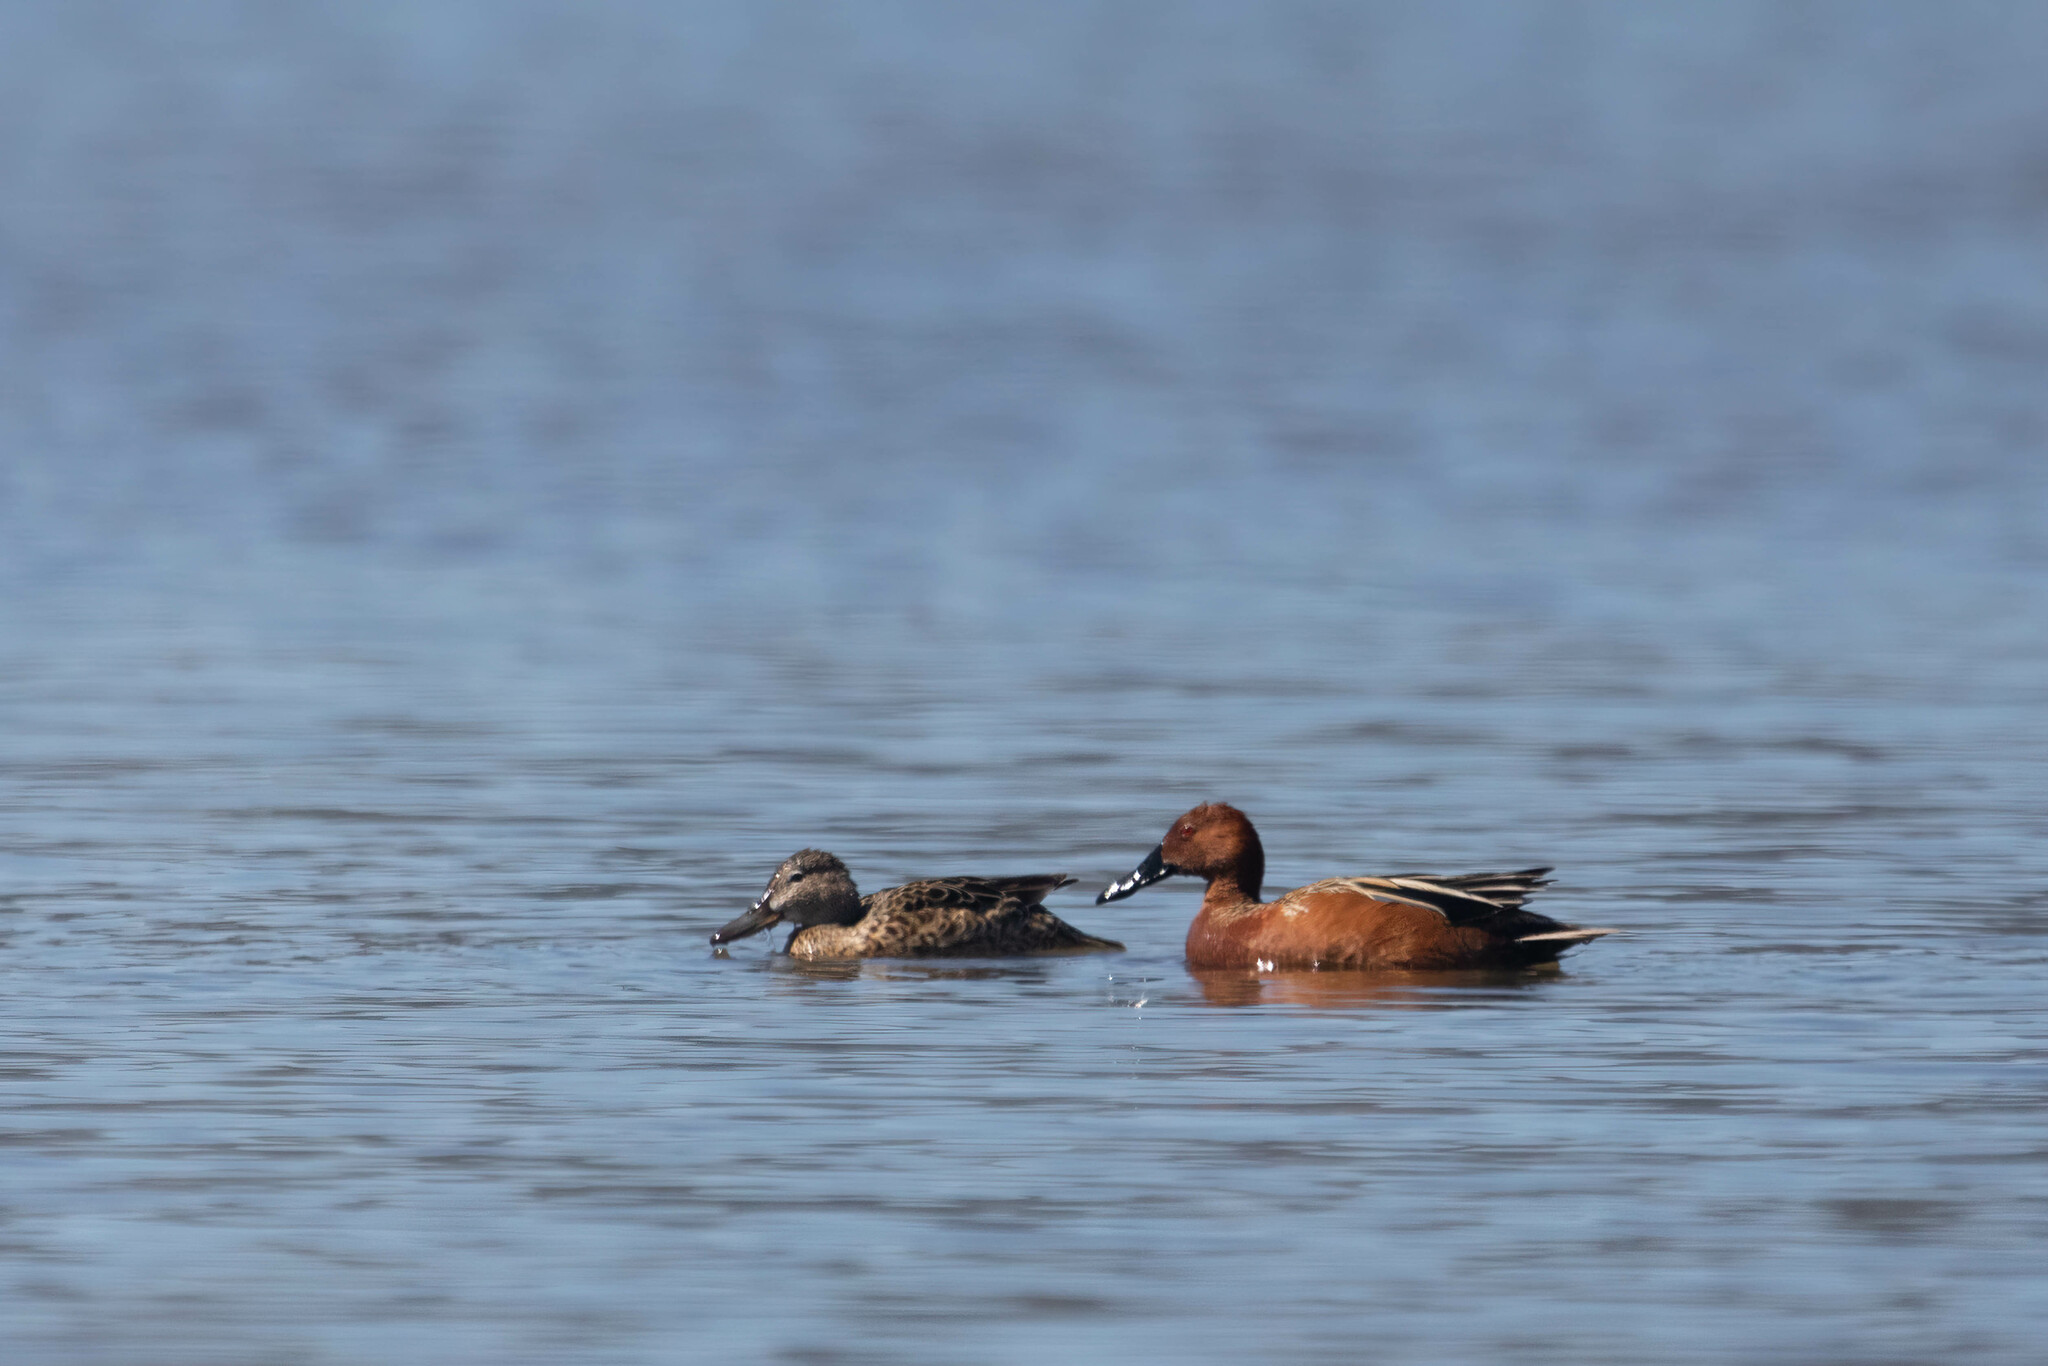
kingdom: Animalia
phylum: Chordata
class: Aves
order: Anseriformes
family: Anatidae
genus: Spatula
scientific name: Spatula cyanoptera
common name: Cinnamon teal
